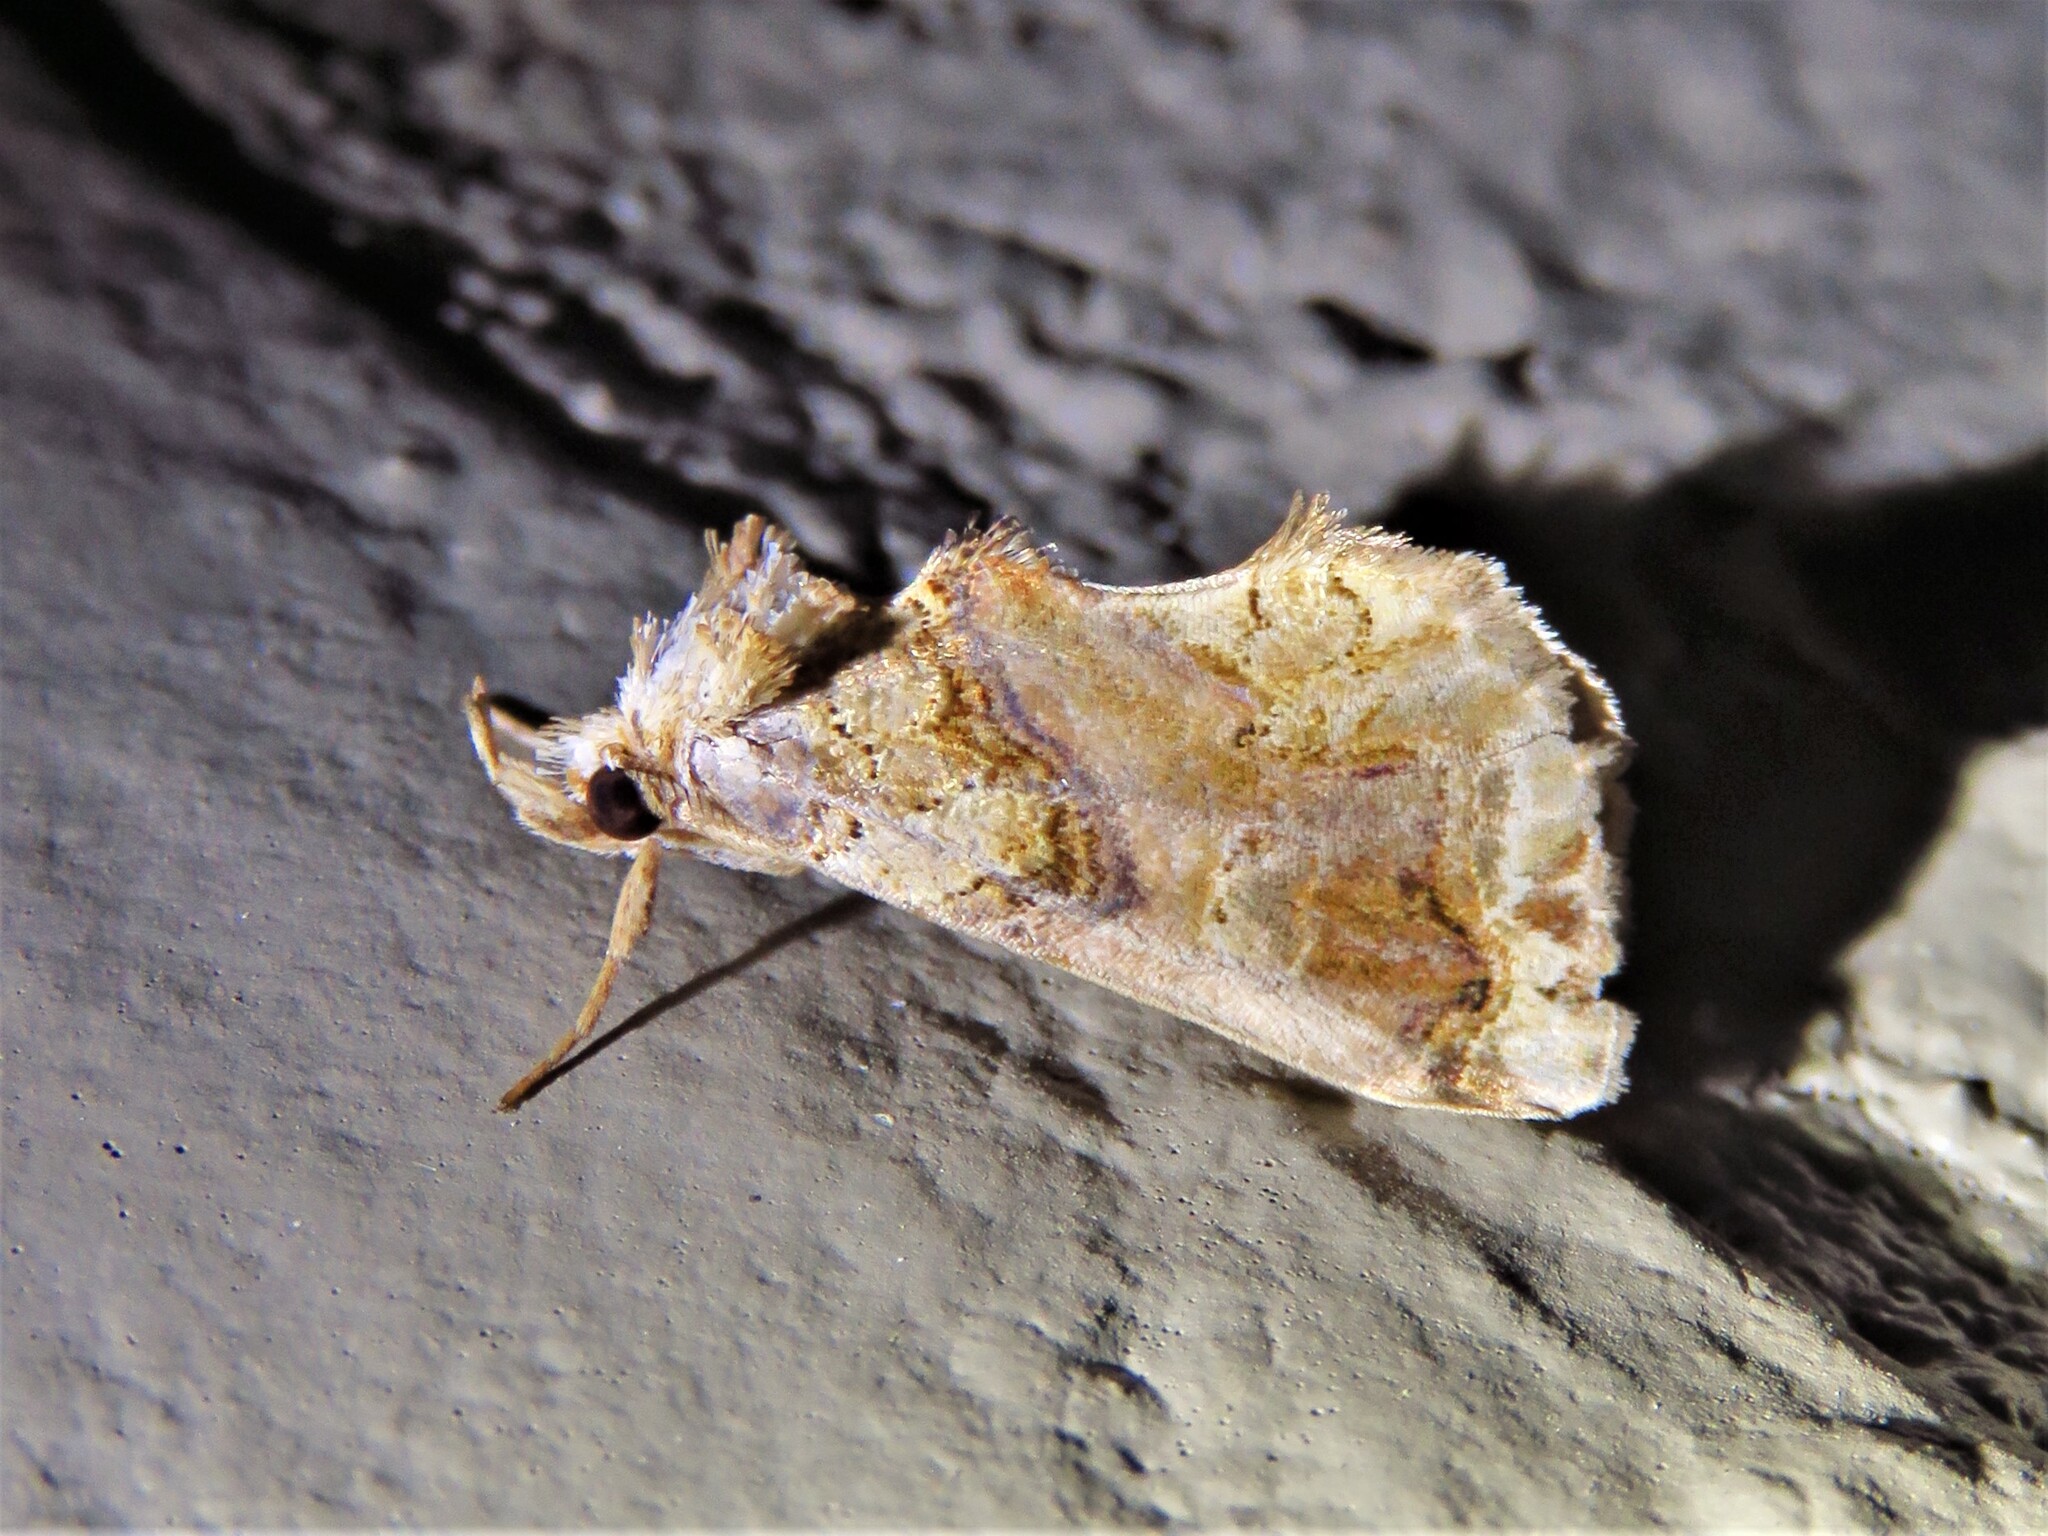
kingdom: Animalia
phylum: Arthropoda
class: Insecta
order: Lepidoptera
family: Erebidae
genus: Plusiodonta
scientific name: Plusiodonta compressipalpis
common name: Moonseed moth
